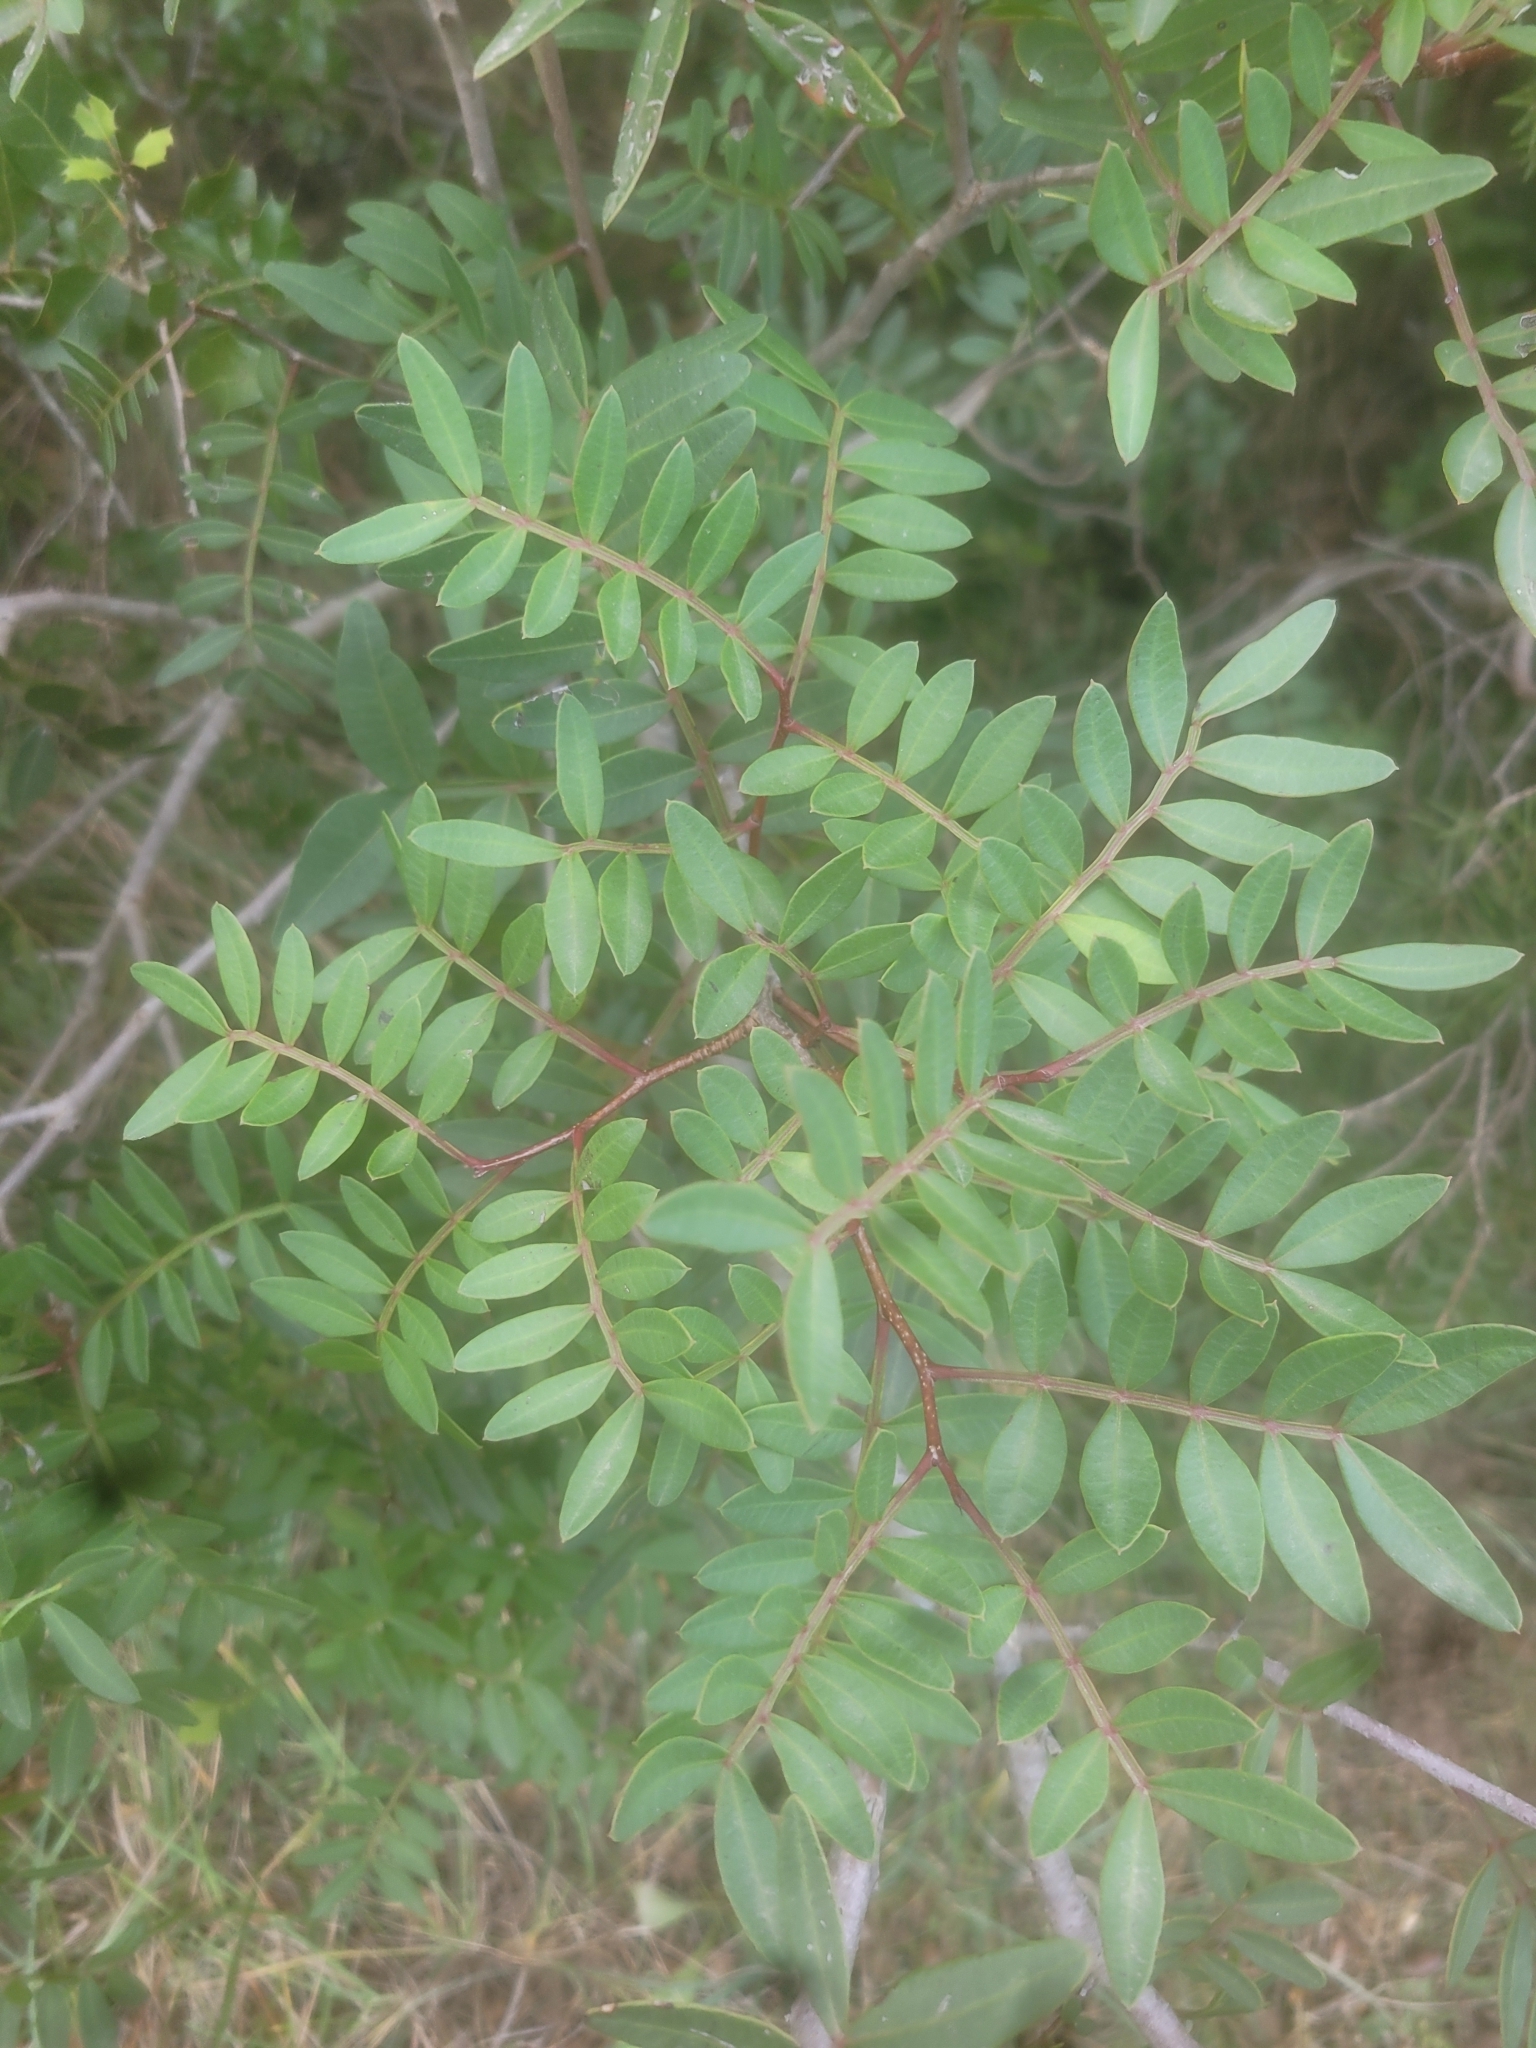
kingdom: Plantae
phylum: Tracheophyta
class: Magnoliopsida
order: Sapindales
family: Anacardiaceae
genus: Pistacia
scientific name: Pistacia lentiscus
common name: Lentisk
